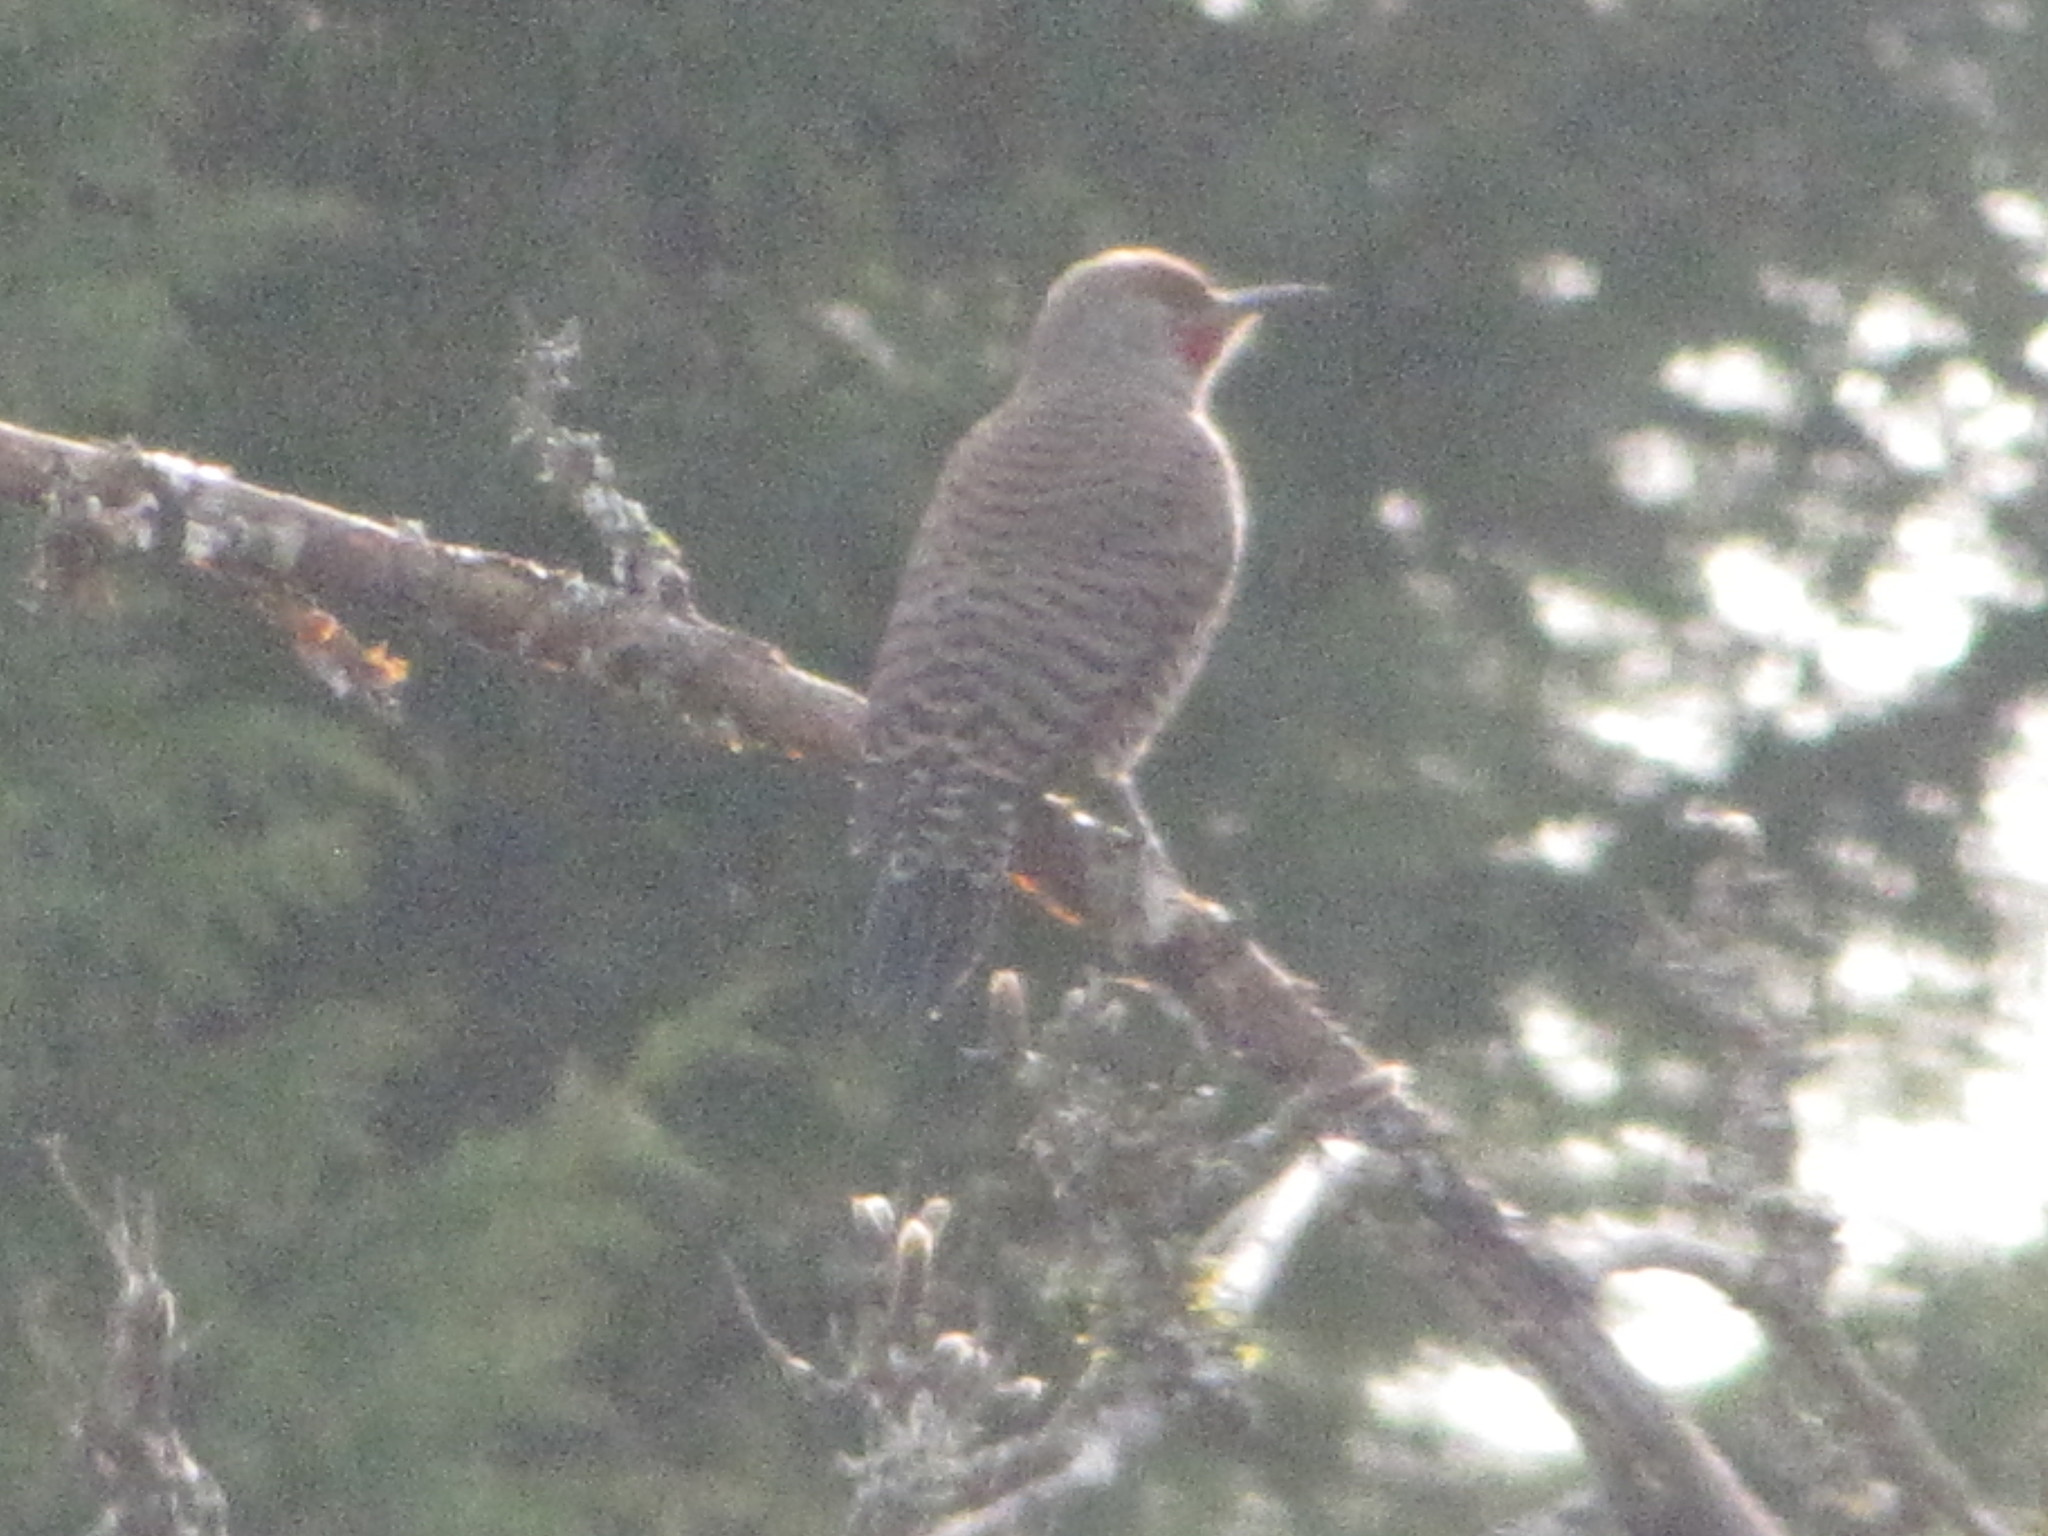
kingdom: Animalia
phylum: Chordata
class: Aves
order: Piciformes
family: Picidae
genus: Colaptes
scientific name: Colaptes auratus
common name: Northern flicker
